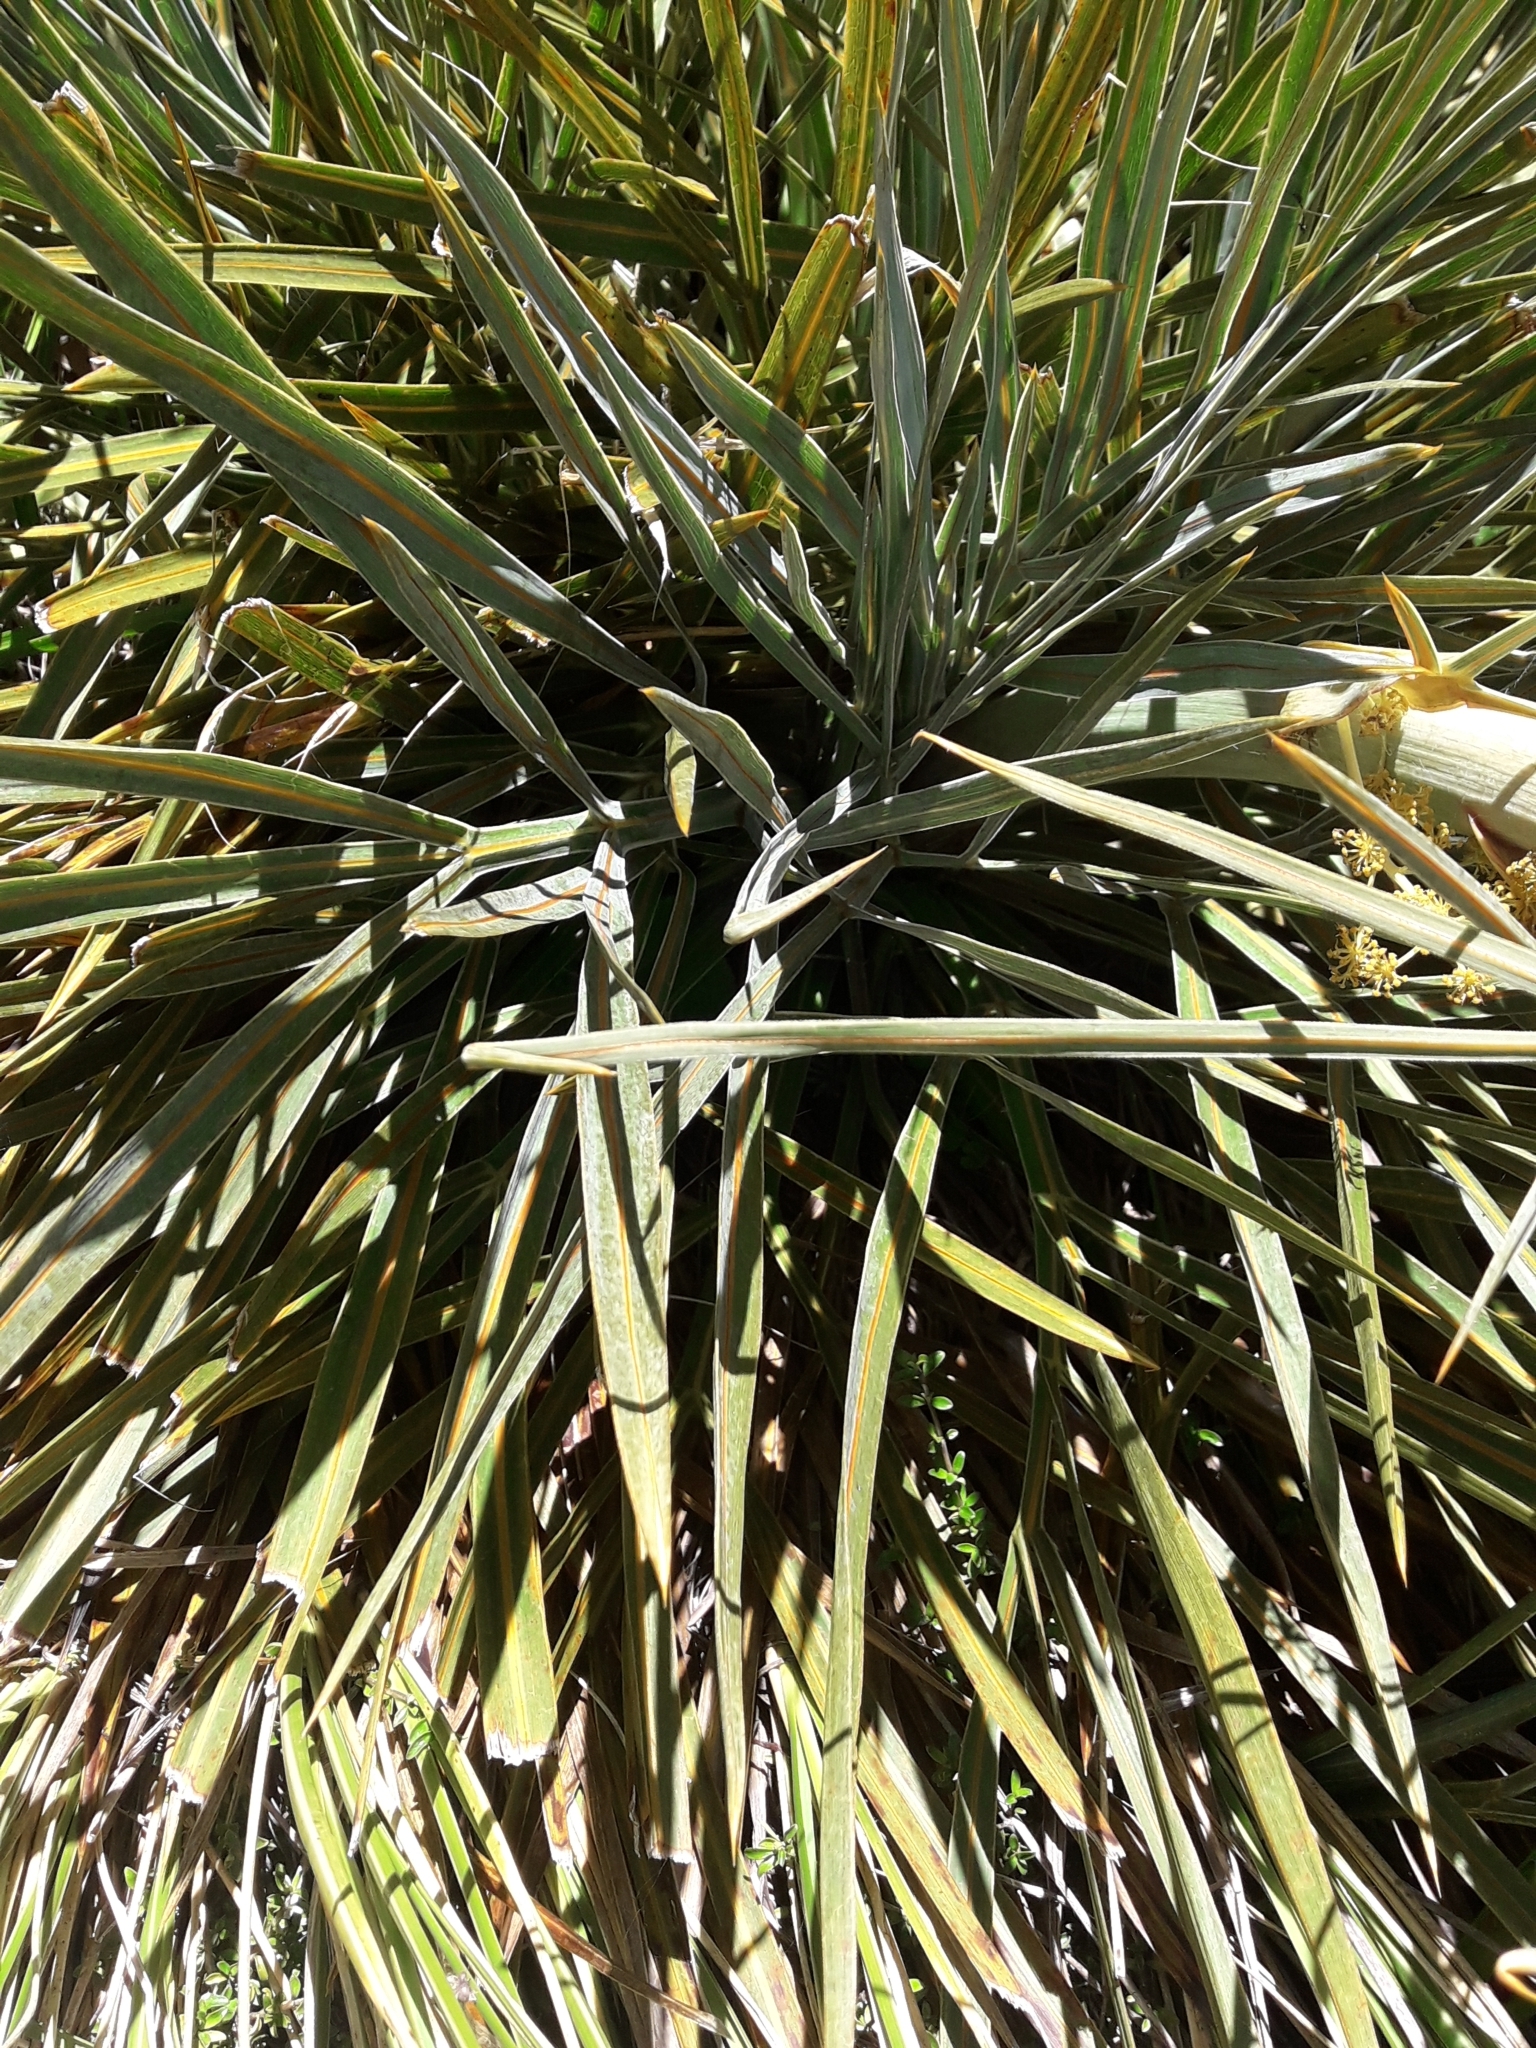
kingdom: Plantae
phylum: Tracheophyta
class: Magnoliopsida
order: Apiales
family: Apiaceae
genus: Aciphylla
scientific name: Aciphylla colensoi
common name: Colenso's spaniard
